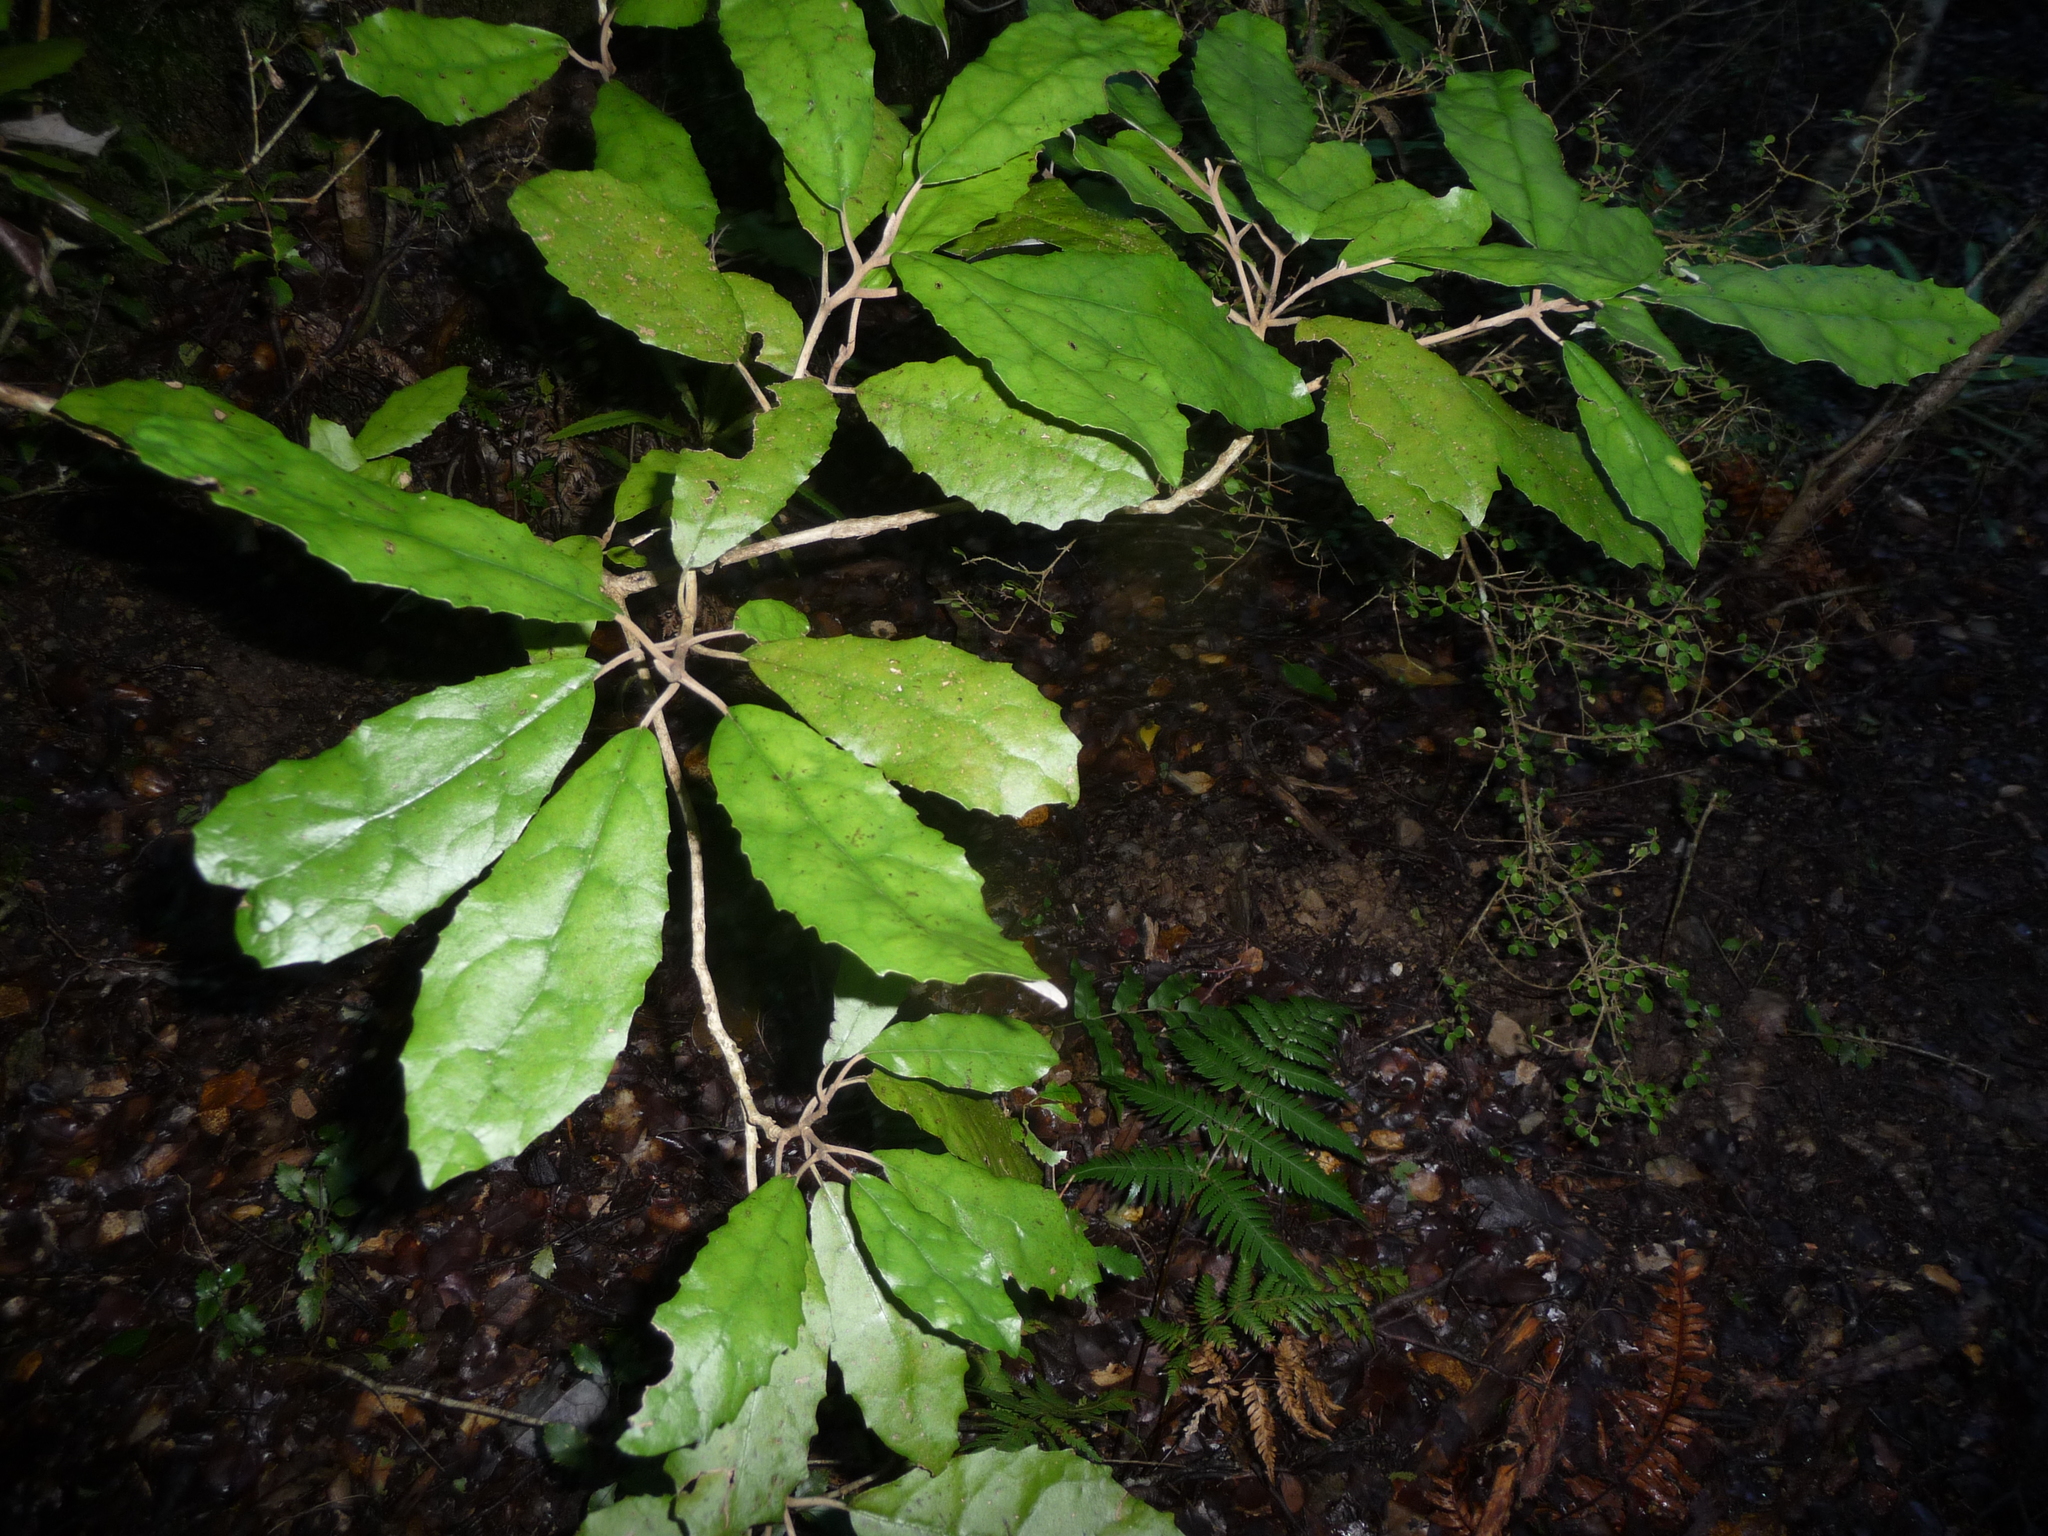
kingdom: Plantae
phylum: Tracheophyta
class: Magnoliopsida
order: Asterales
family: Asteraceae
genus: Olearia
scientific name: Olearia rani
